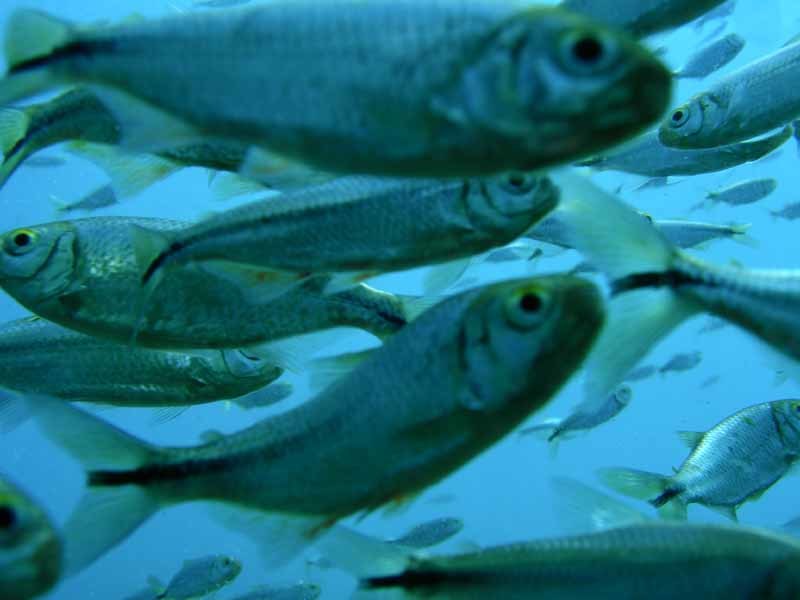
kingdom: Animalia
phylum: Chordata
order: Characiformes
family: Characidae
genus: Astyanax
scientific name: Astyanax mexicanus
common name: Mexican tetra
